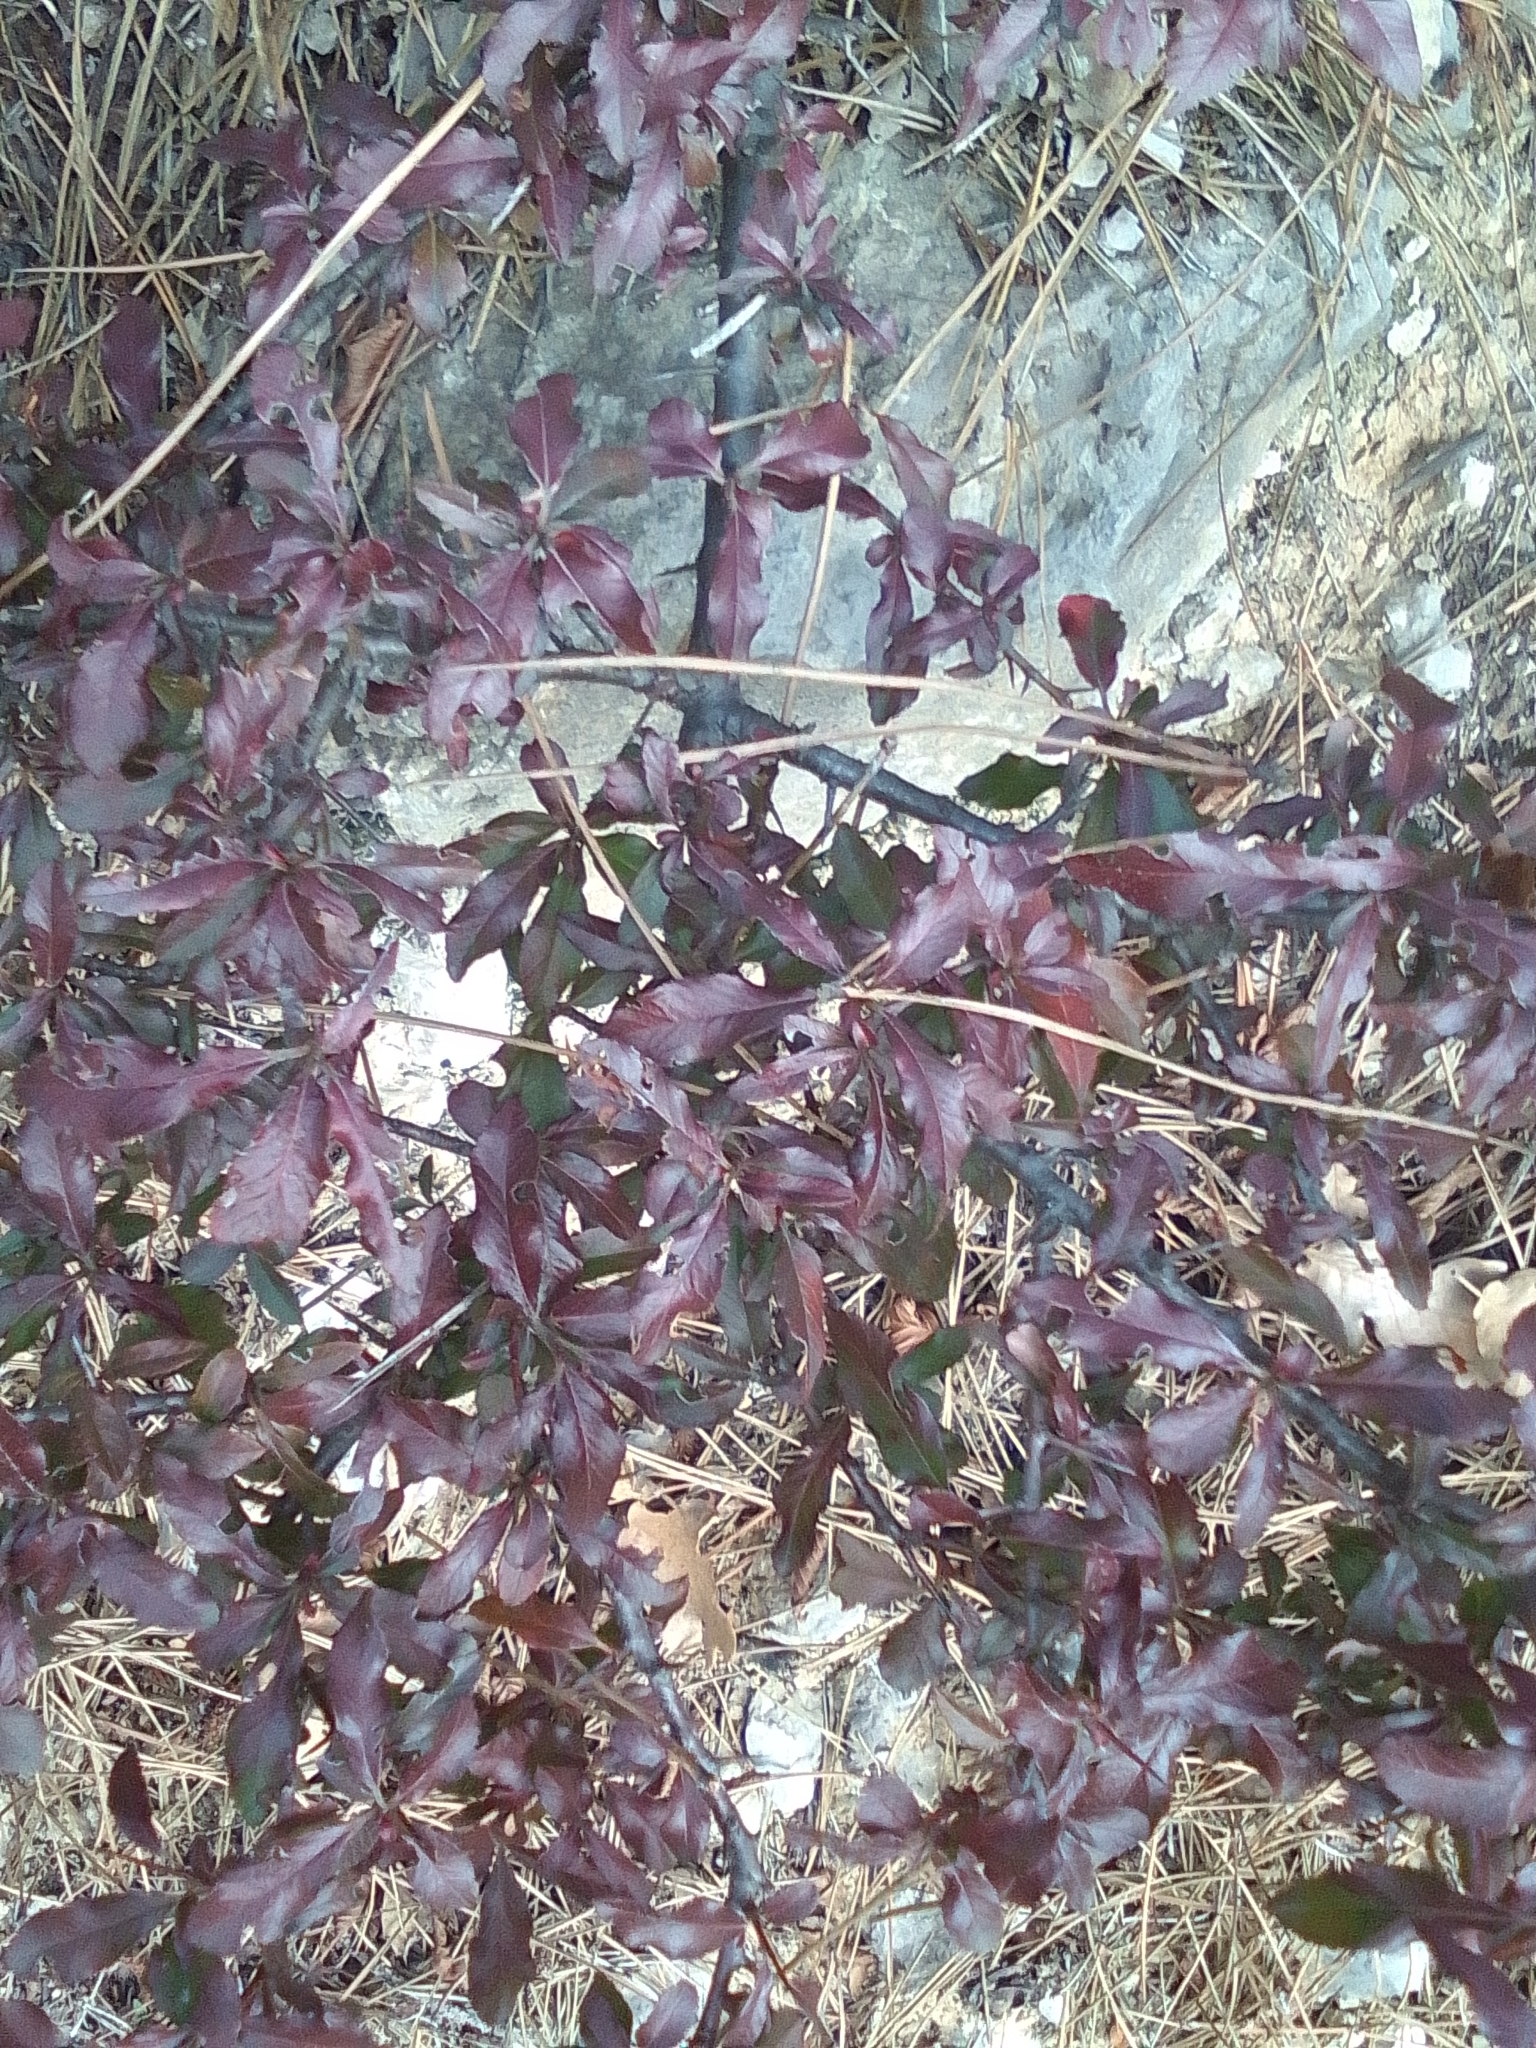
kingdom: Plantae
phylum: Tracheophyta
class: Magnoliopsida
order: Rosales
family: Rosaceae
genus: Pyracantha
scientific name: Pyracantha coccinea
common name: Firethorn
